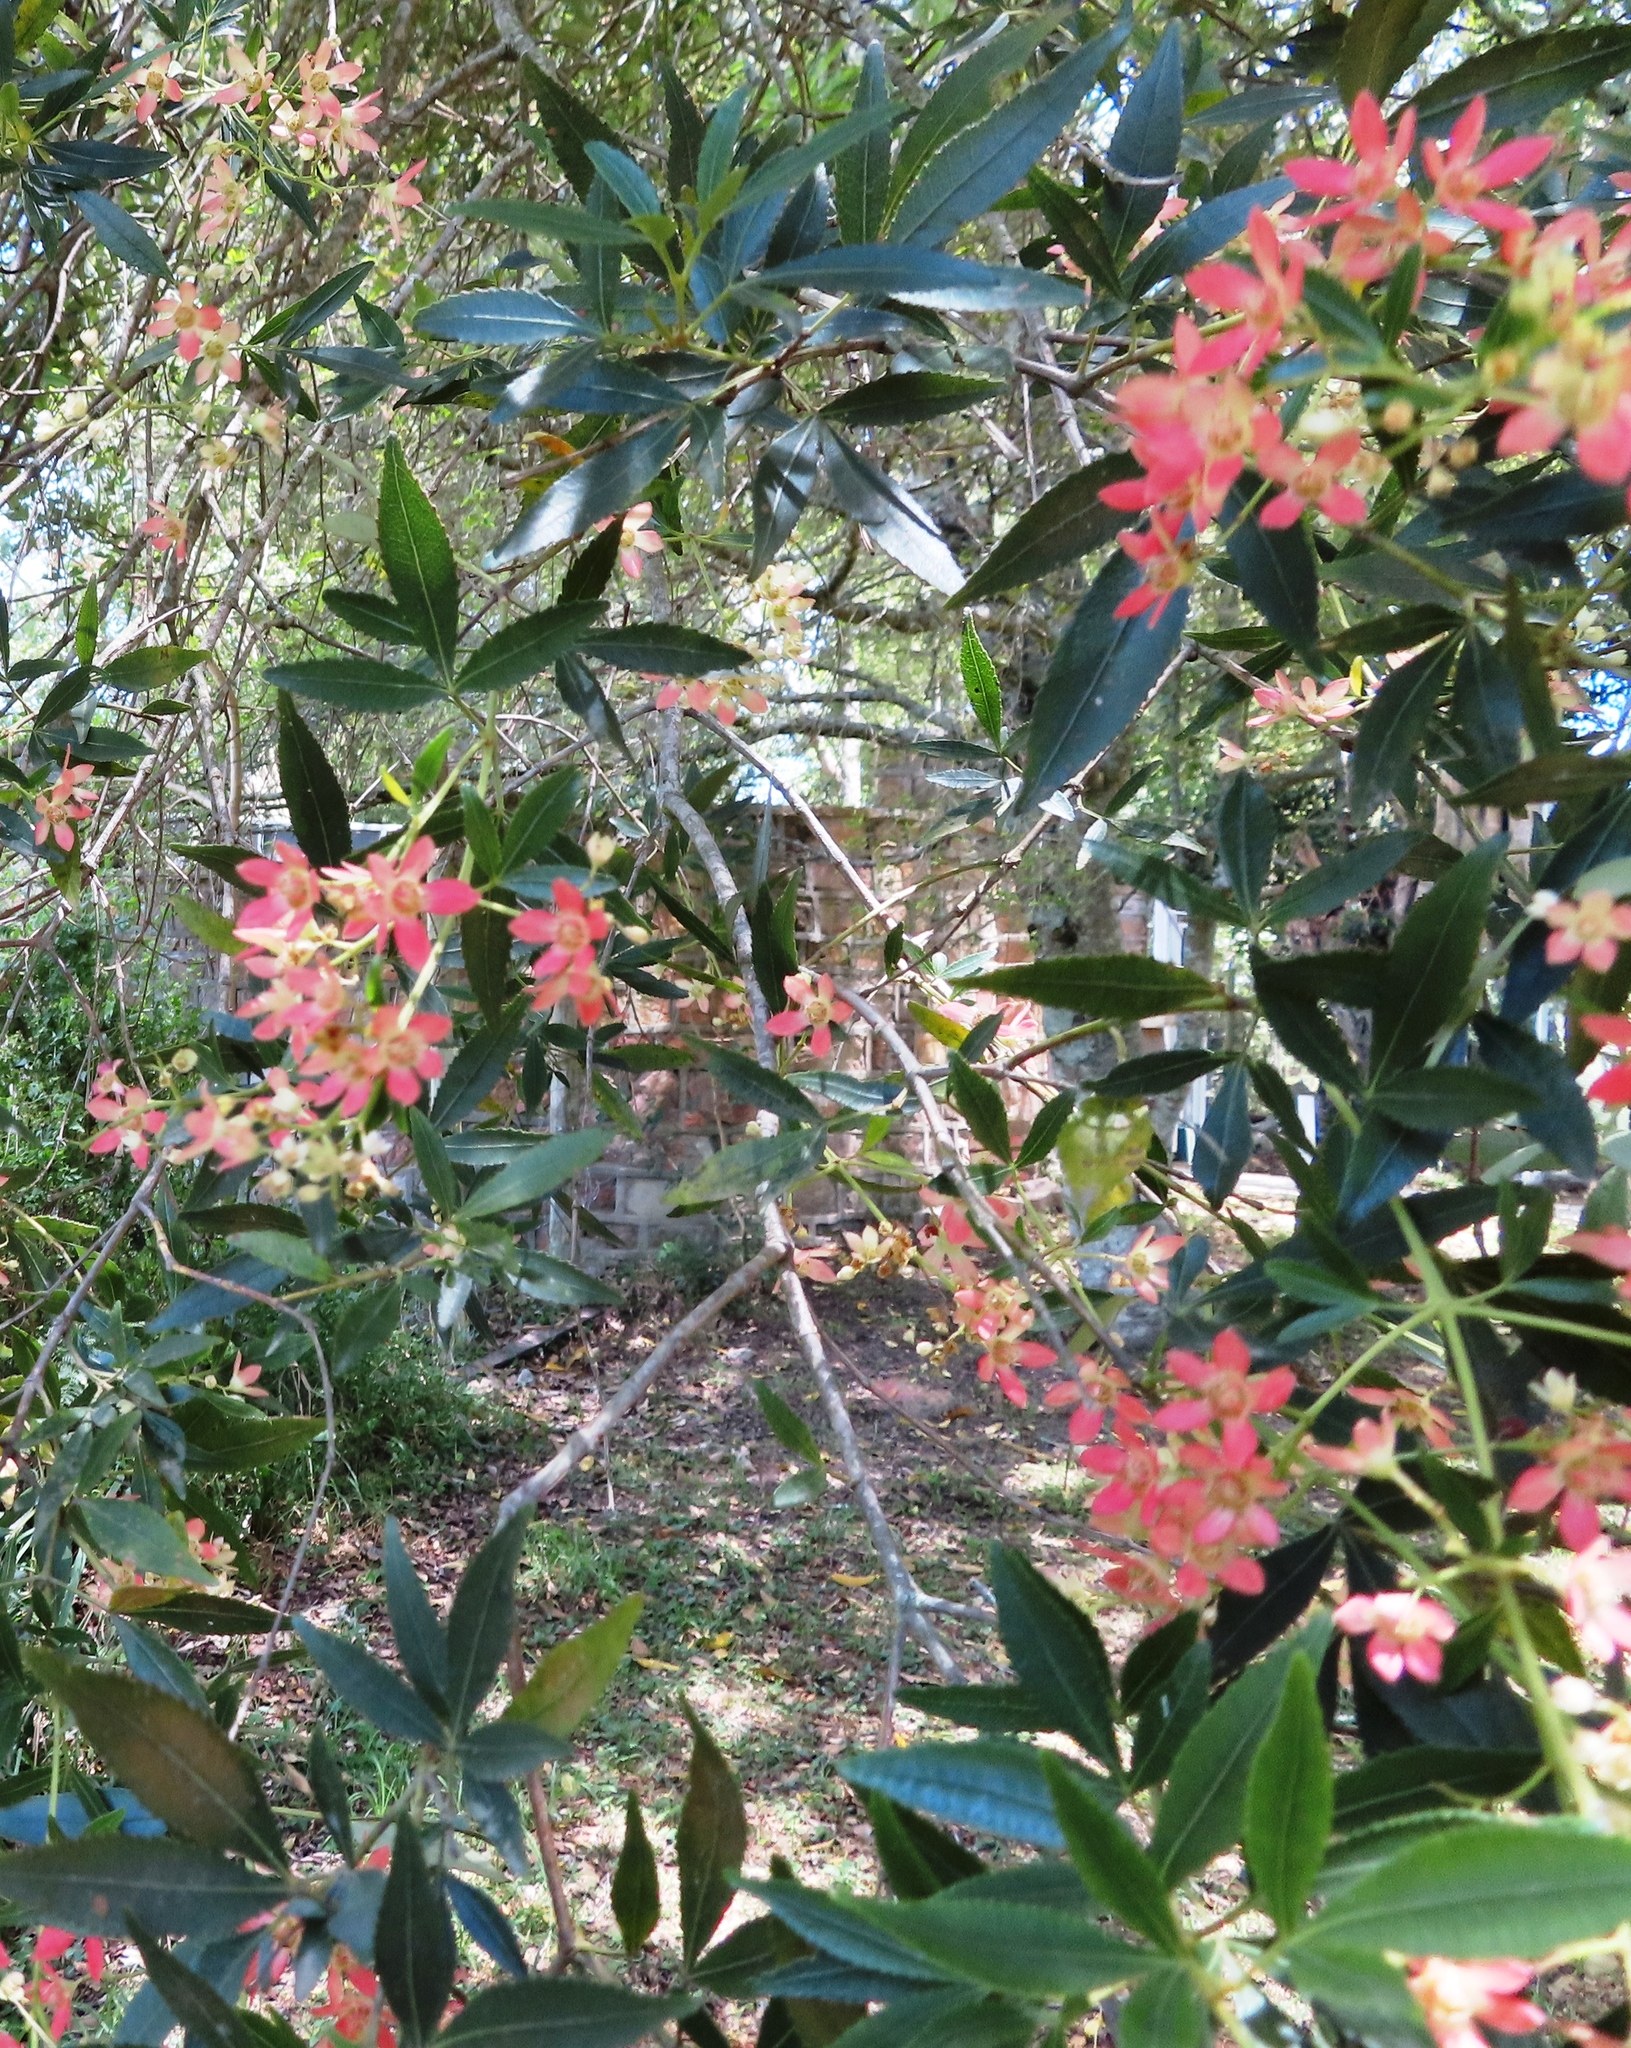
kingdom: Plantae
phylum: Tracheophyta
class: Magnoliopsida
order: Oxalidales
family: Cunoniaceae
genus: Ceratopetalum
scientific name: Ceratopetalum gummiferum
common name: Christmasbush
